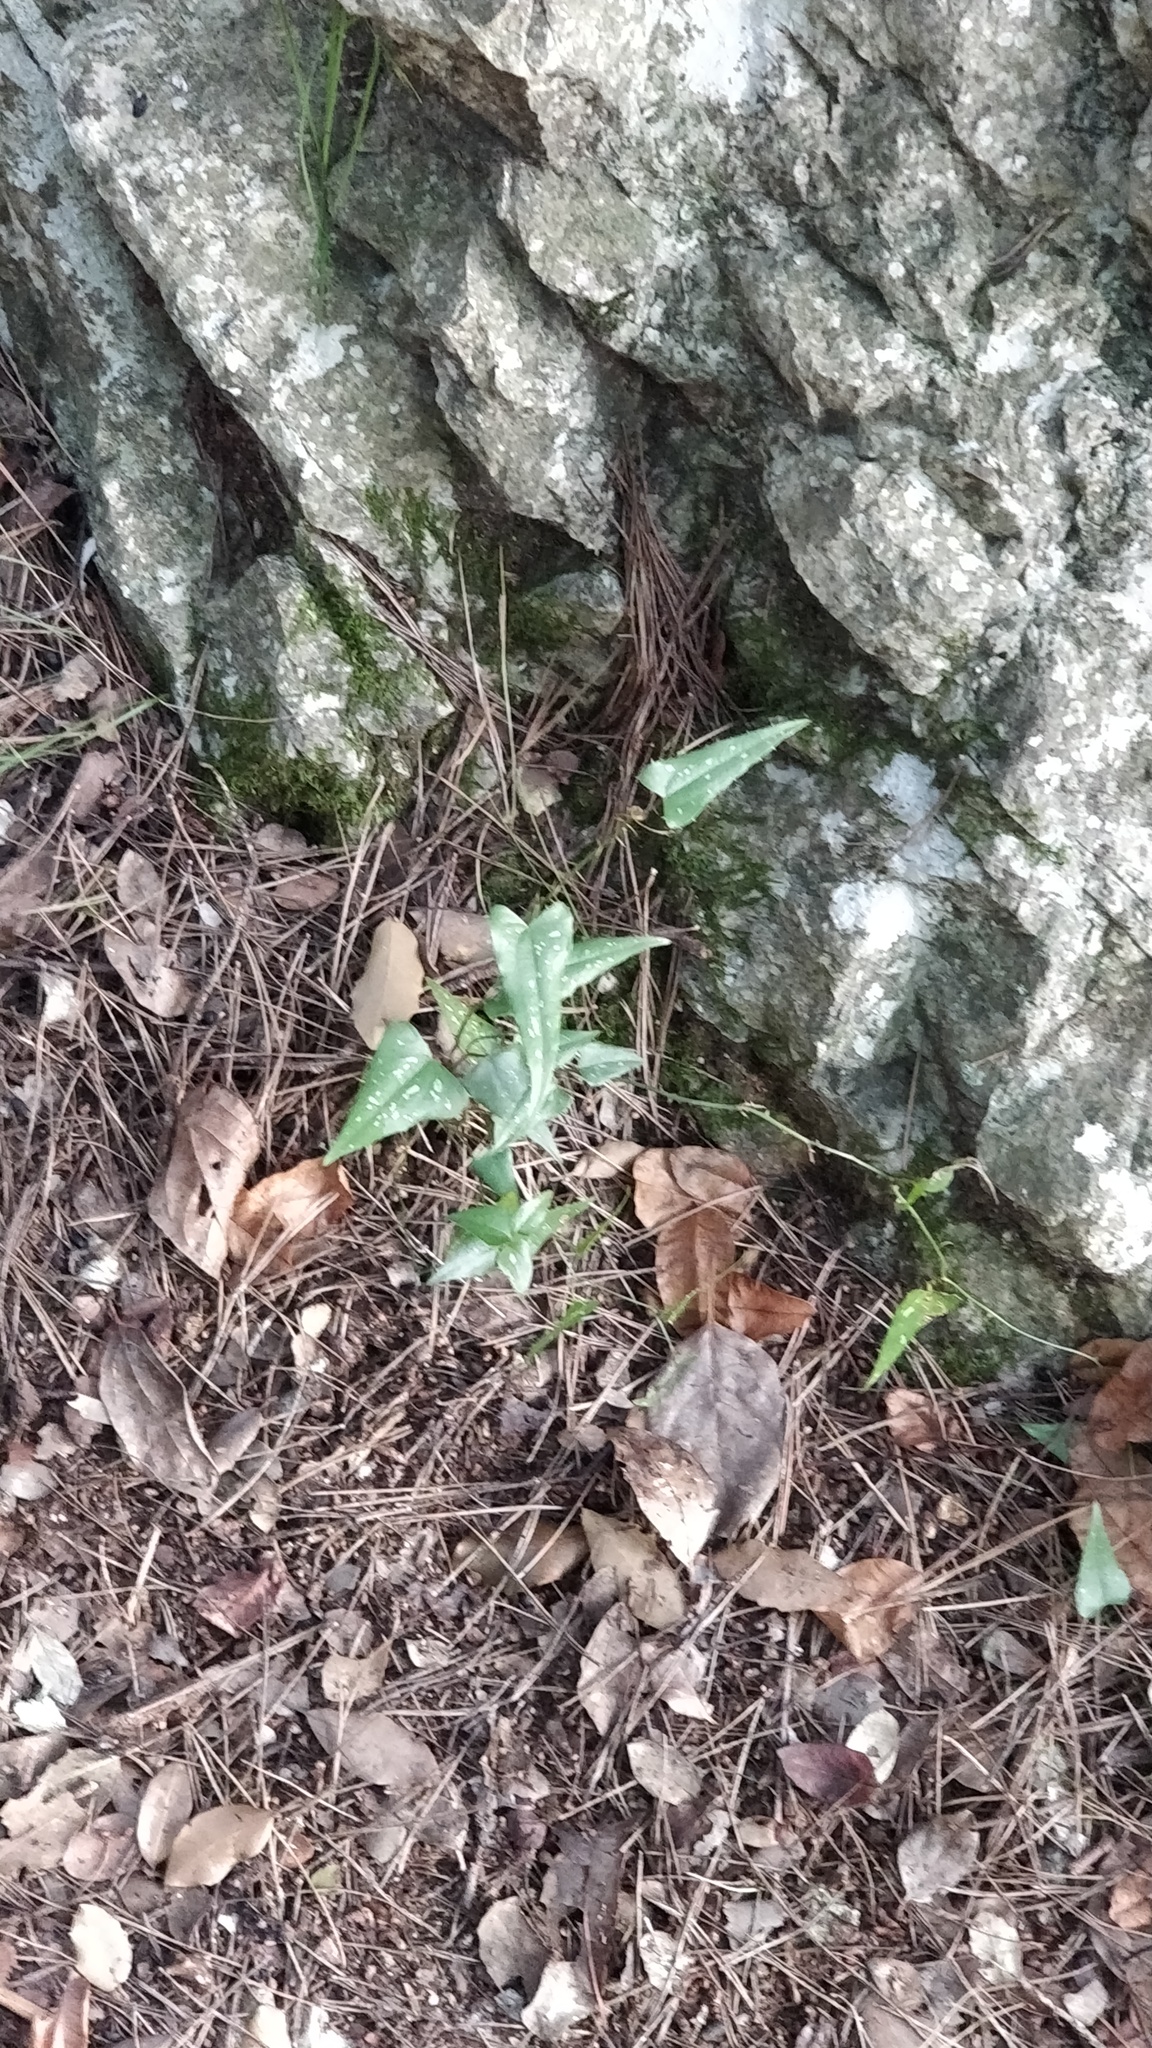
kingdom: Plantae
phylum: Tracheophyta
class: Liliopsida
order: Liliales
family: Smilacaceae
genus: Smilax
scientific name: Smilax aspera
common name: Common smilax
